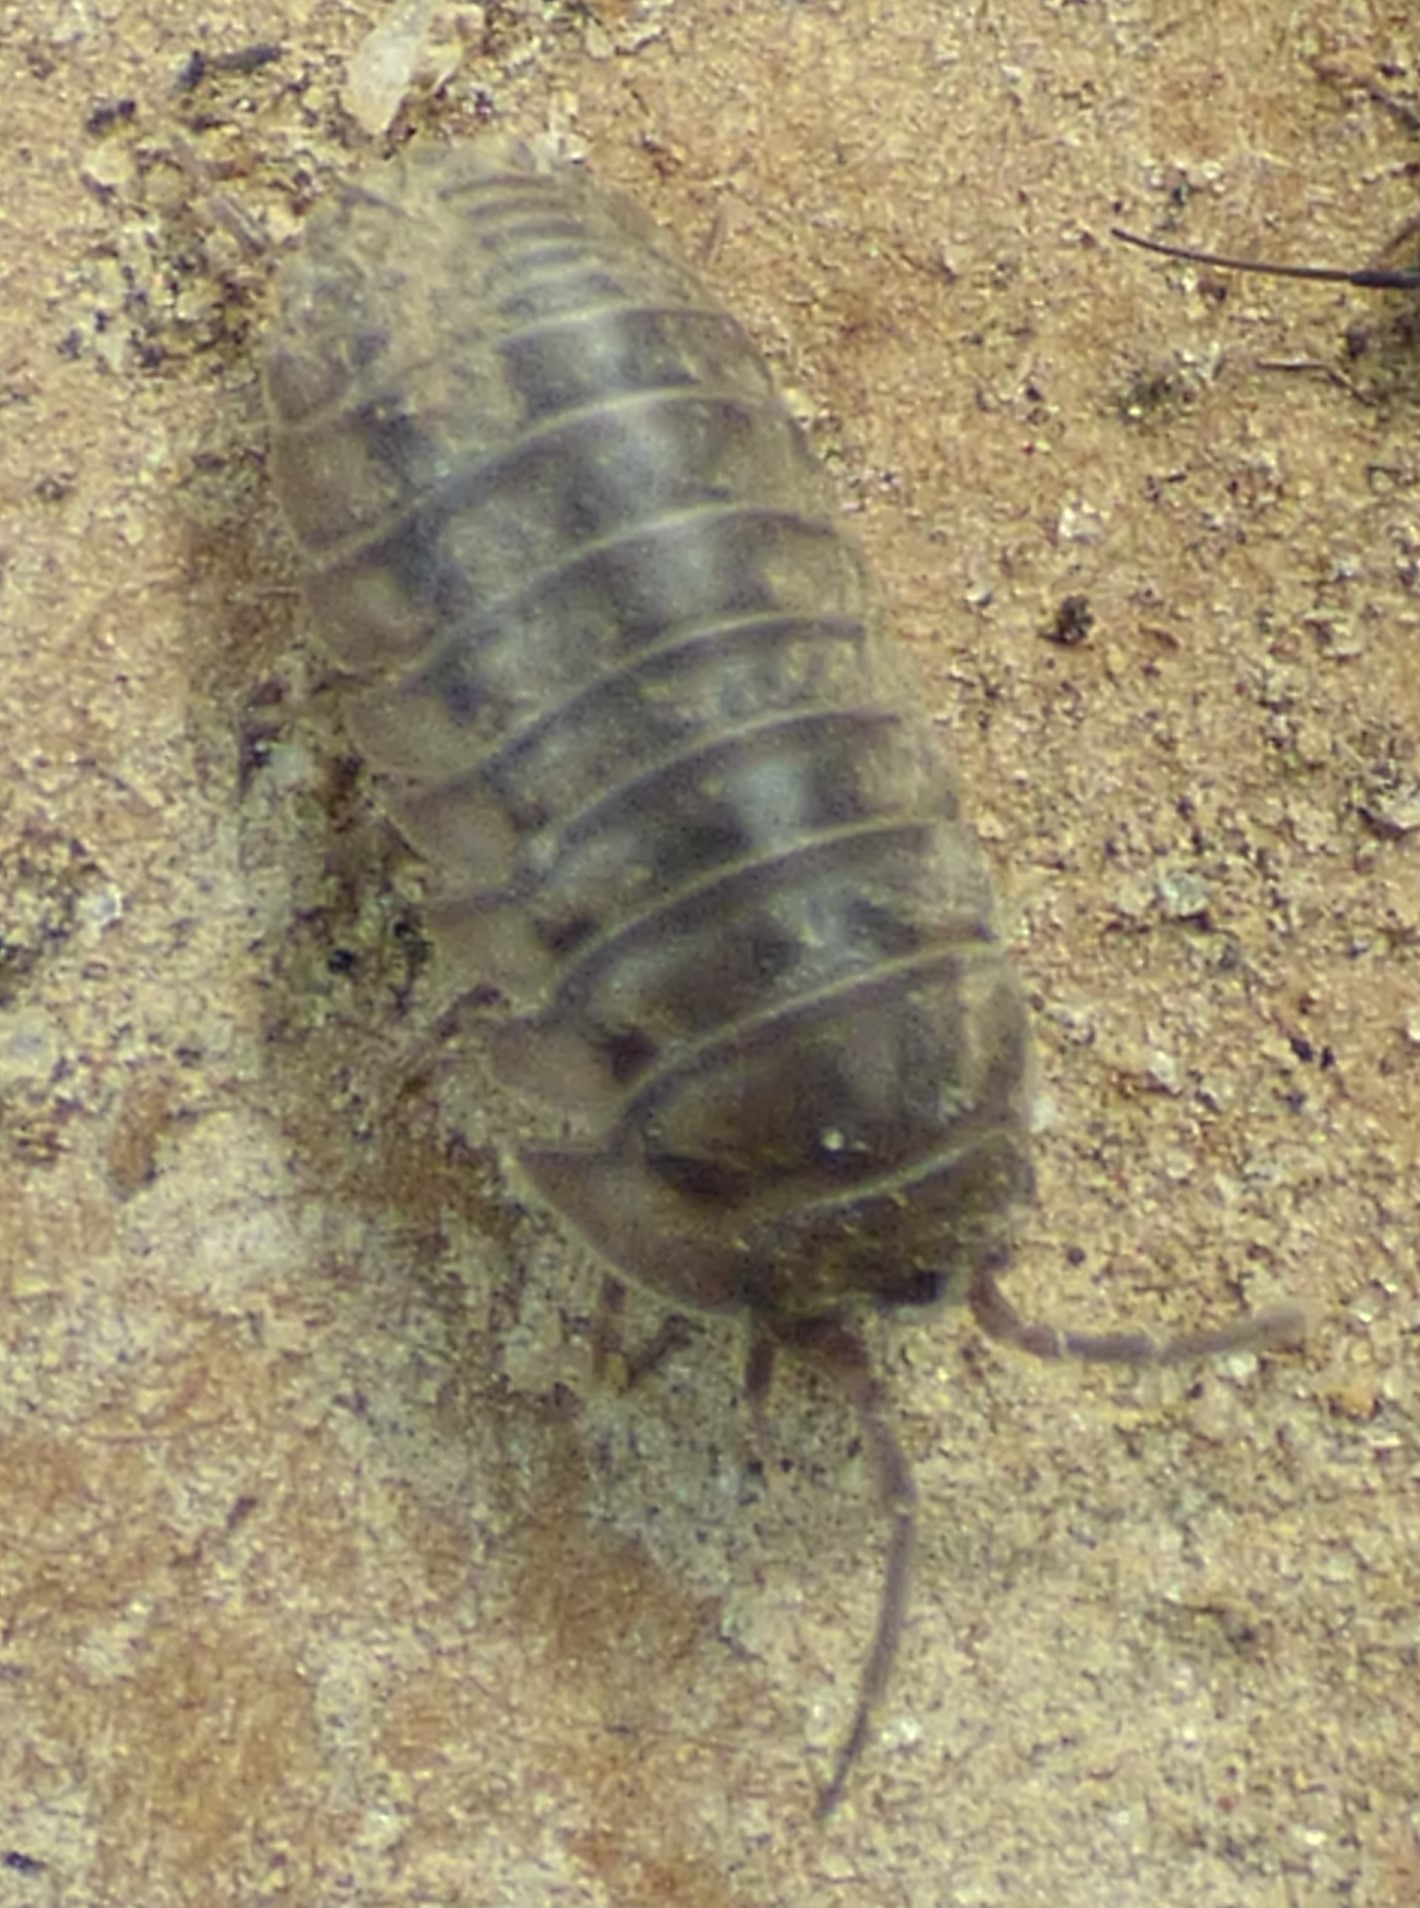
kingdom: Animalia
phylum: Arthropoda
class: Malacostraca
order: Isopoda
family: Armadillidiidae
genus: Armadillidium
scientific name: Armadillidium nasatum
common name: Isopod
